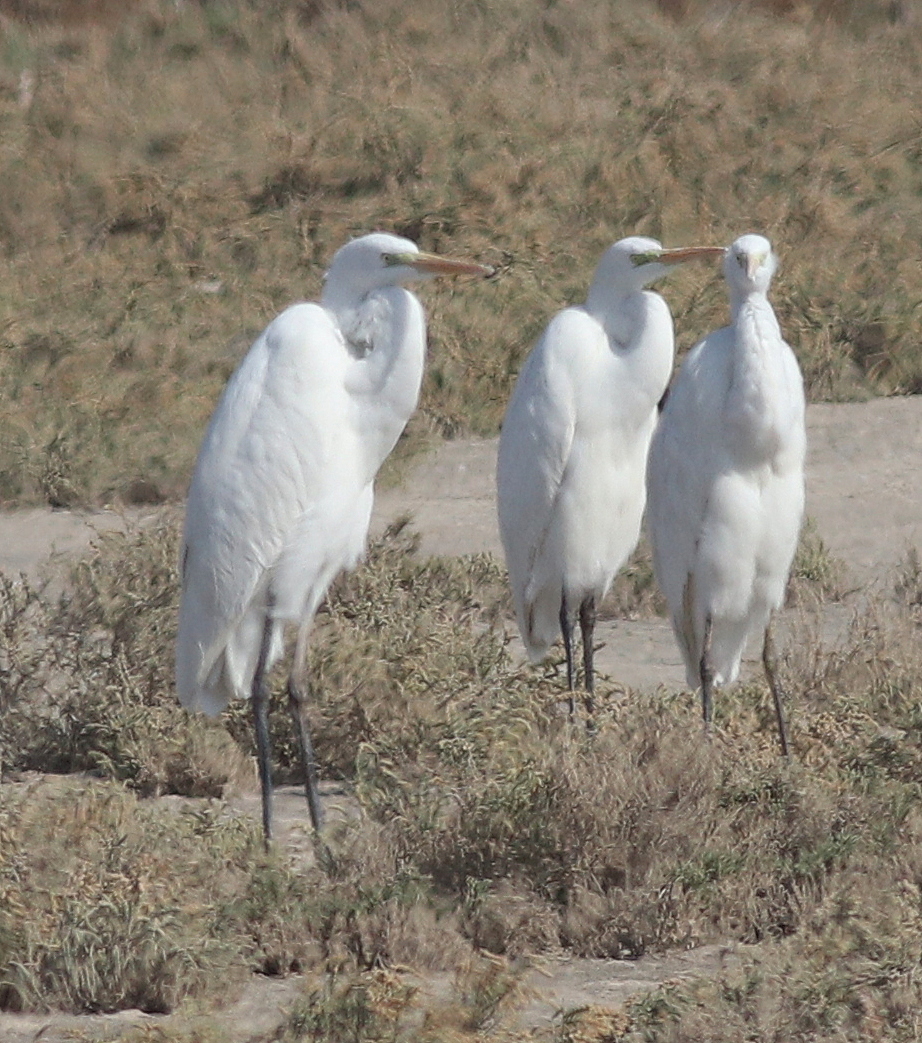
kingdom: Animalia
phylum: Chordata
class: Aves
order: Pelecaniformes
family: Ardeidae
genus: Ardea
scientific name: Ardea alba
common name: Great egret
